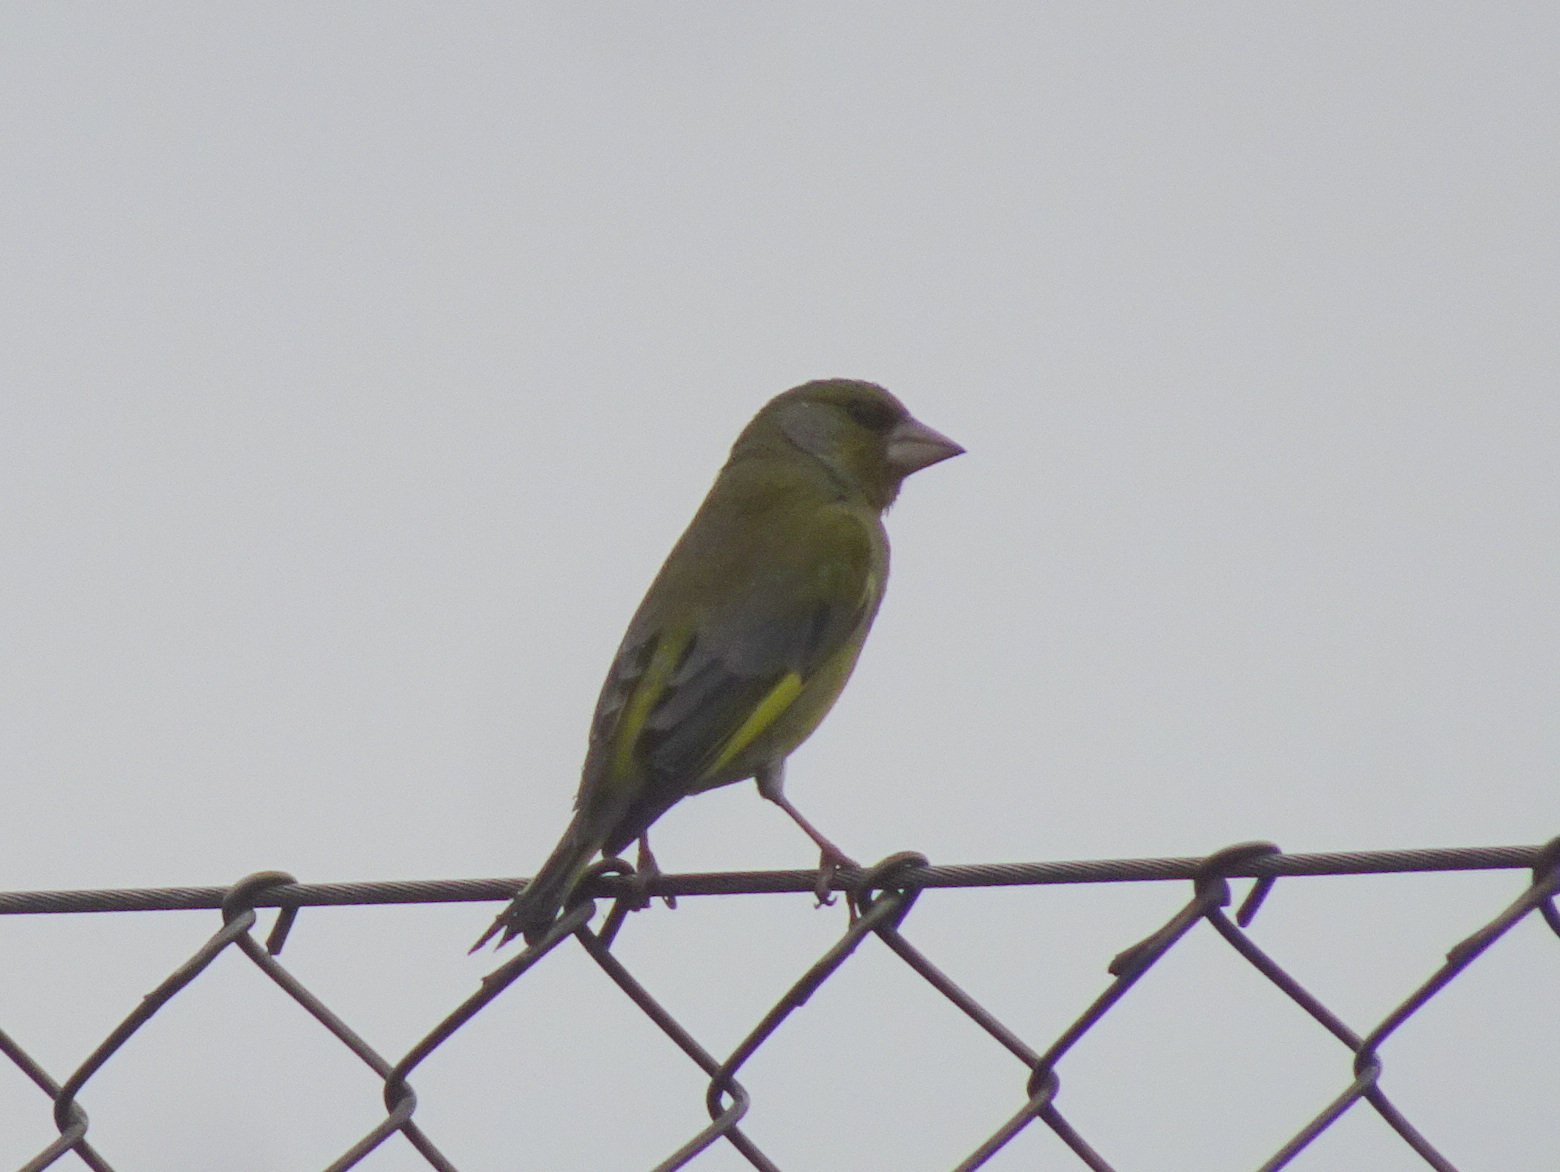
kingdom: Plantae
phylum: Tracheophyta
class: Liliopsida
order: Poales
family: Poaceae
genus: Chloris
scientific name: Chloris chloris
